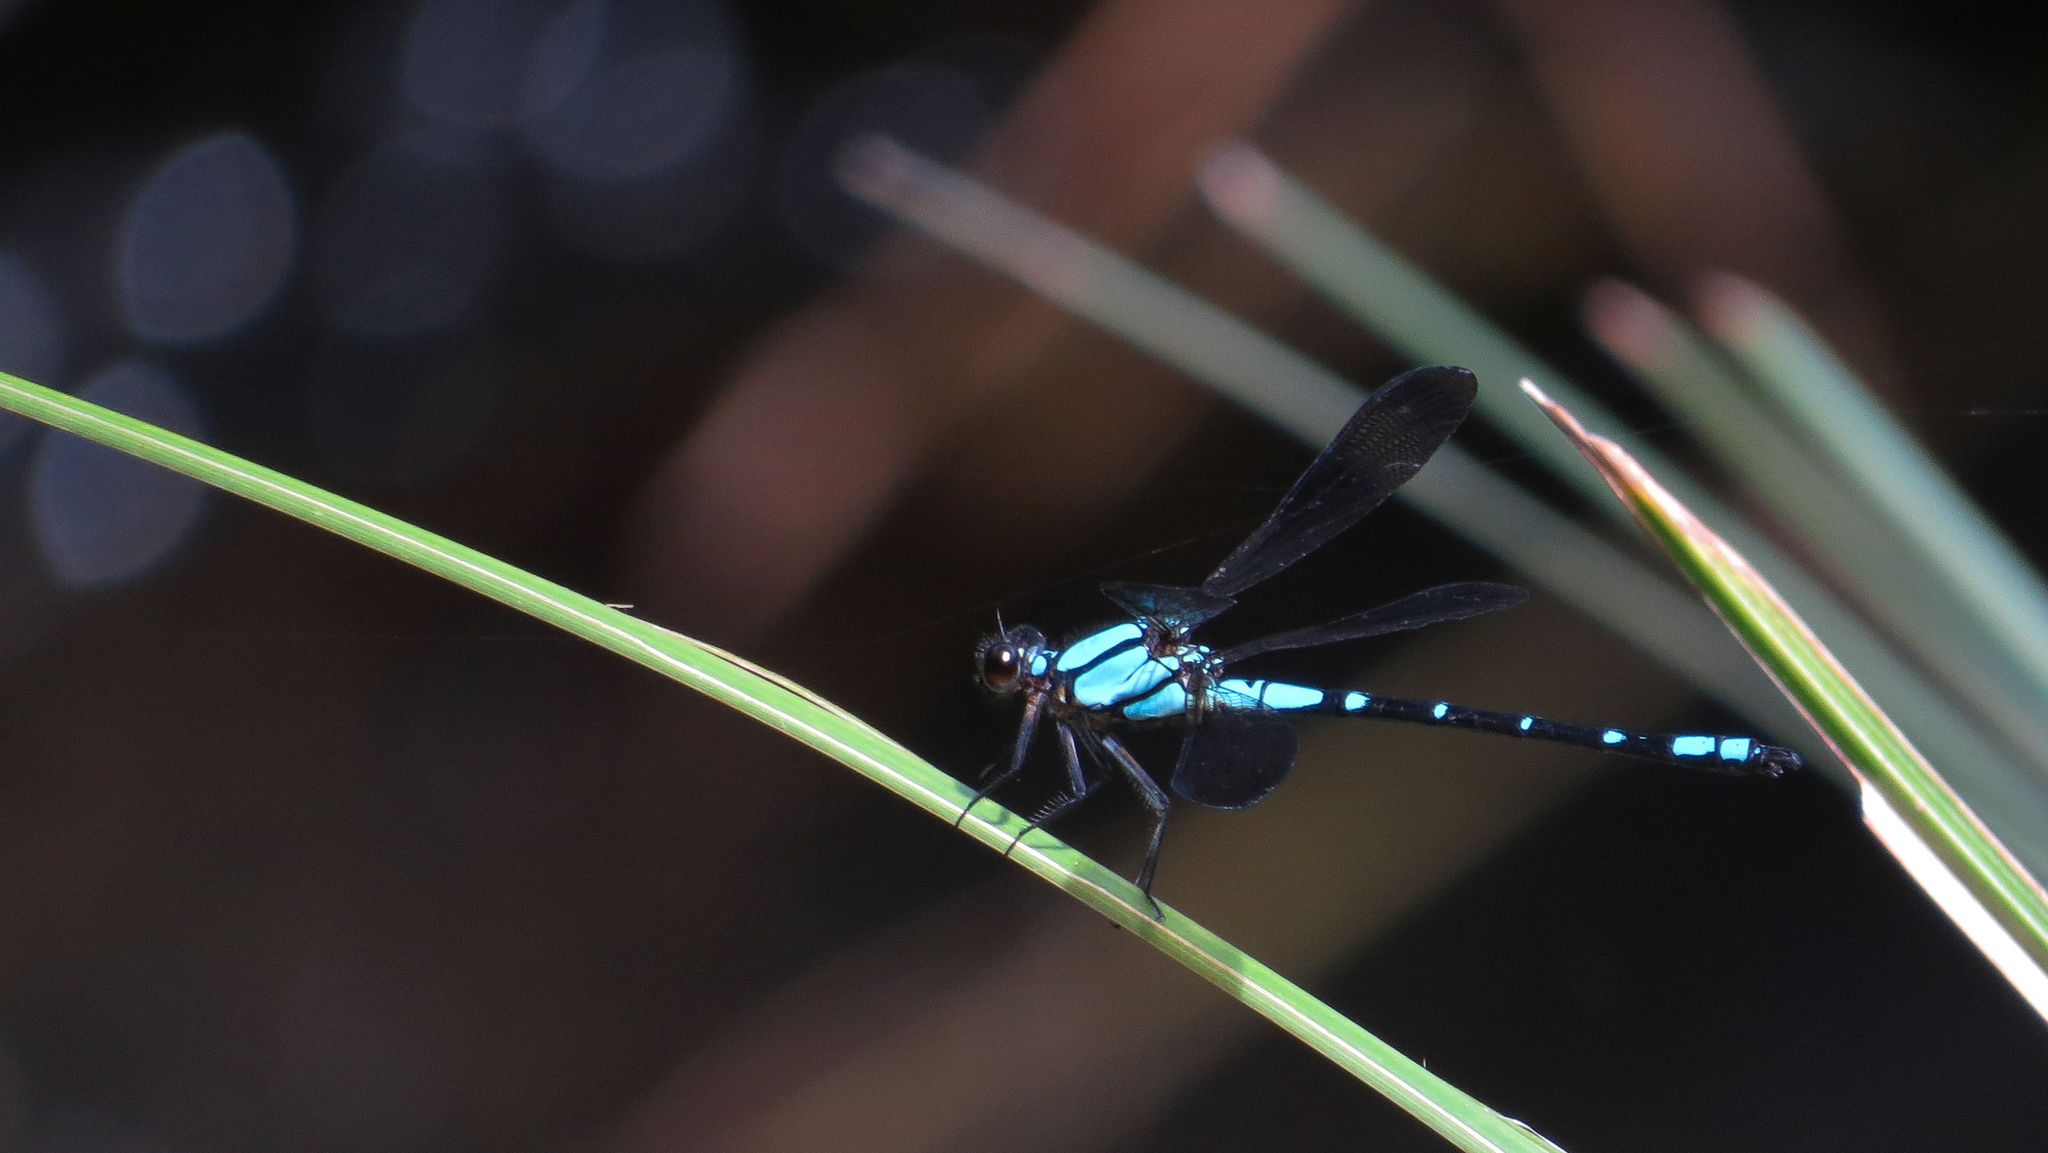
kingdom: Animalia
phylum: Arthropoda
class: Insecta
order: Odonata
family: Lestoideidae
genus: Diphlebia
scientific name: Diphlebia coerulescens
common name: Sapphire rockmaster
